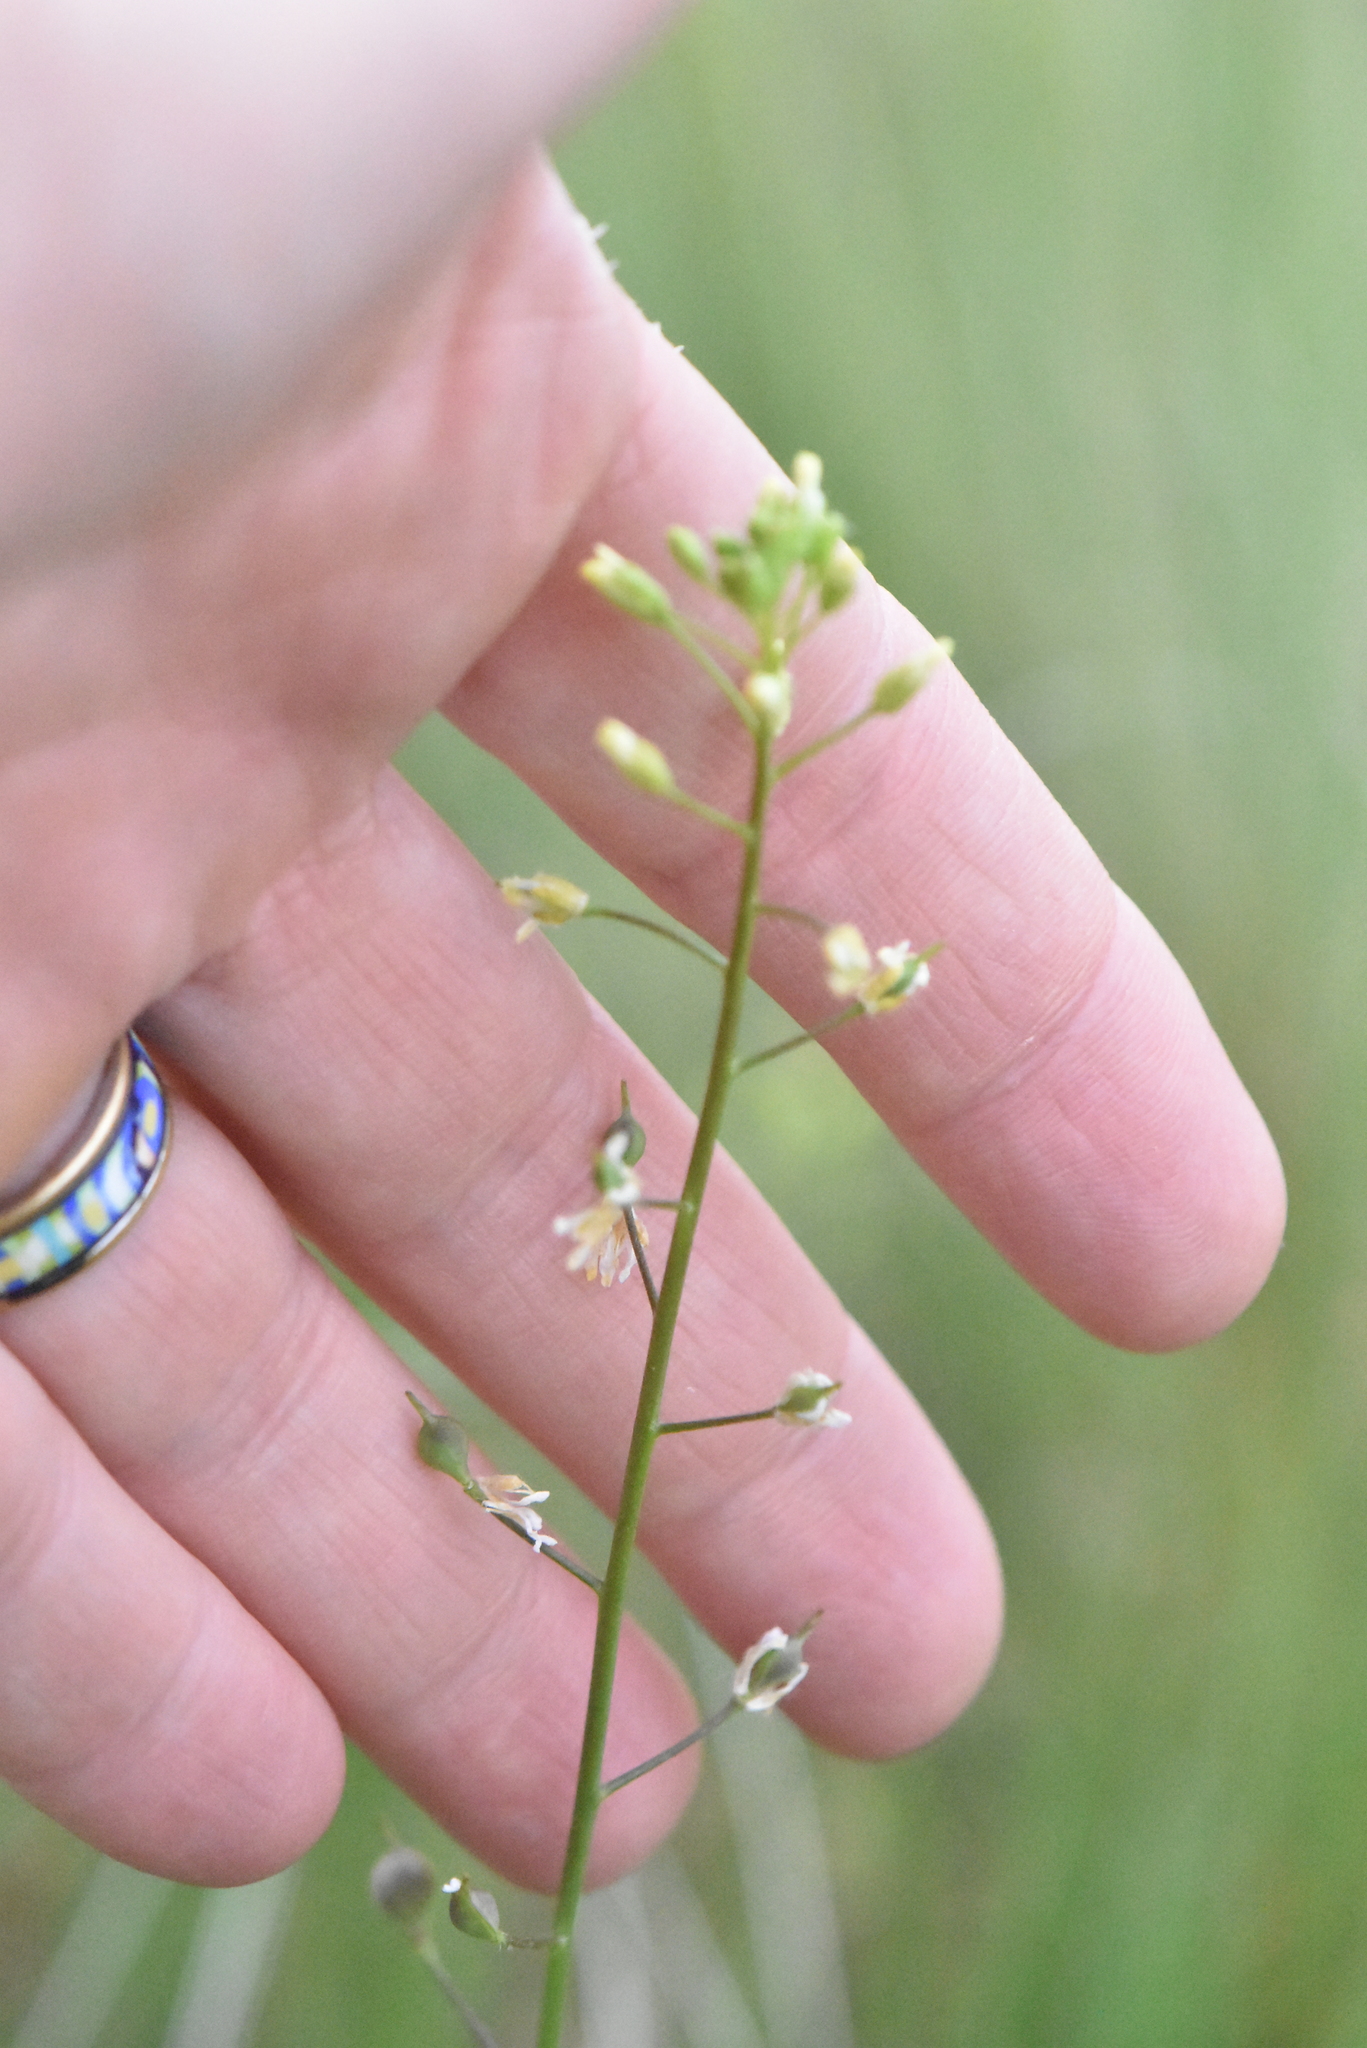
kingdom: Plantae
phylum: Tracheophyta
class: Magnoliopsida
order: Brassicales
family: Brassicaceae
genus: Camelina
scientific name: Camelina microcarpa
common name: Lesser gold-of-pleasure
